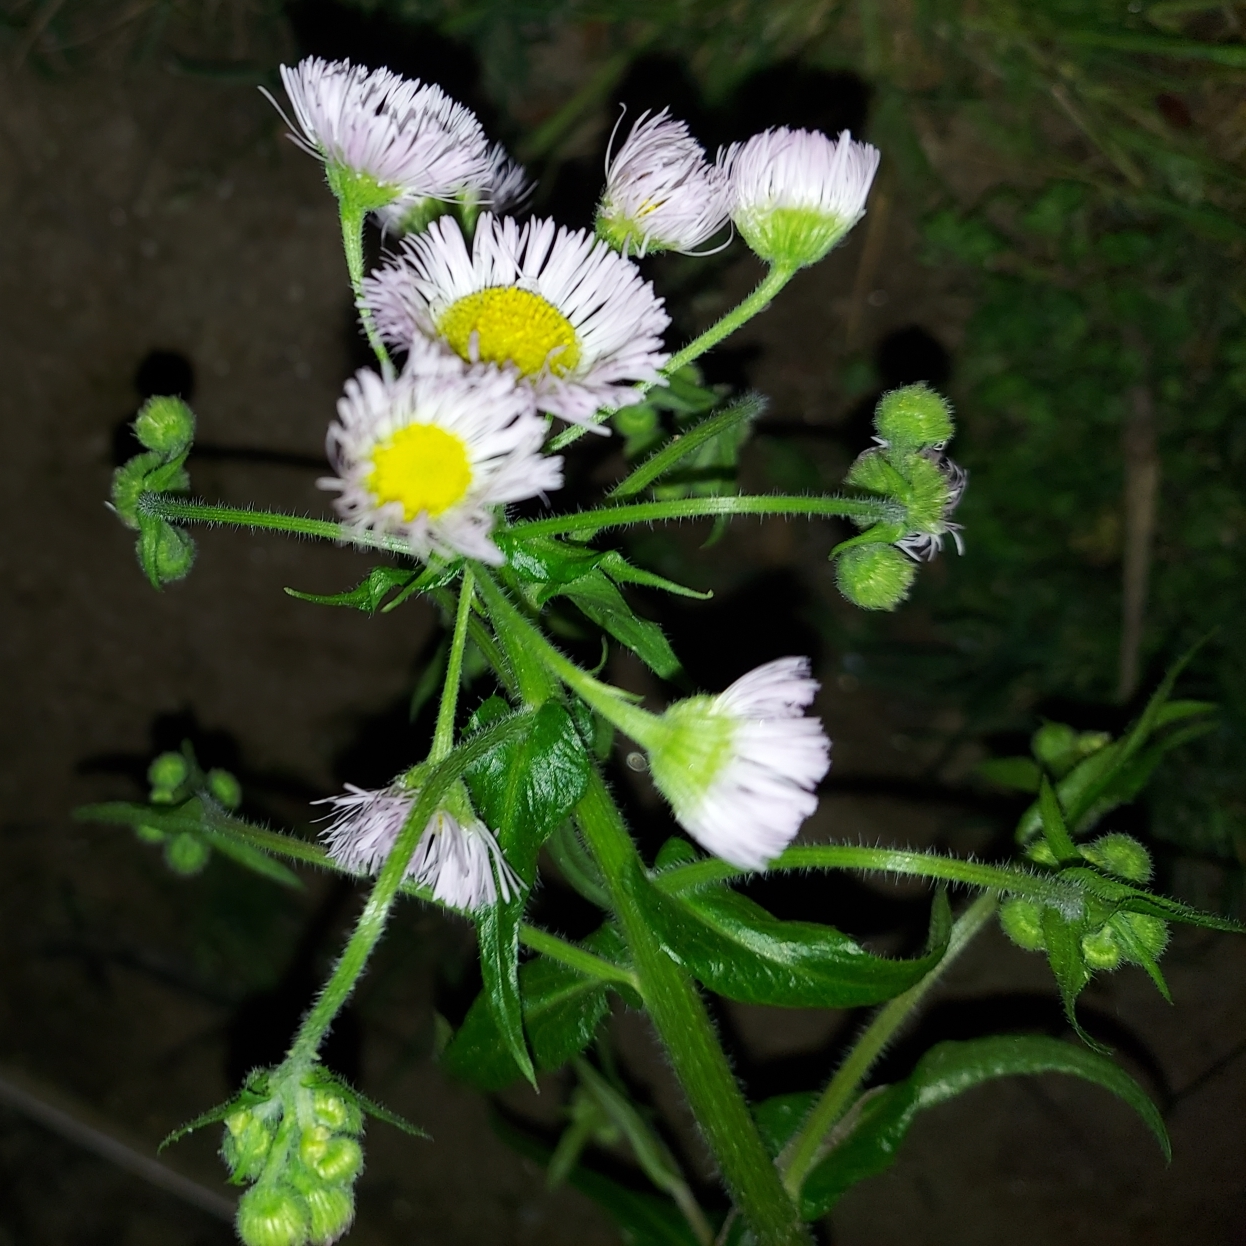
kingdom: Plantae
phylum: Tracheophyta
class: Magnoliopsida
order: Asterales
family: Asteraceae
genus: Erigeron
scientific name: Erigeron philadelphicus
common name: Robin's-plantain
